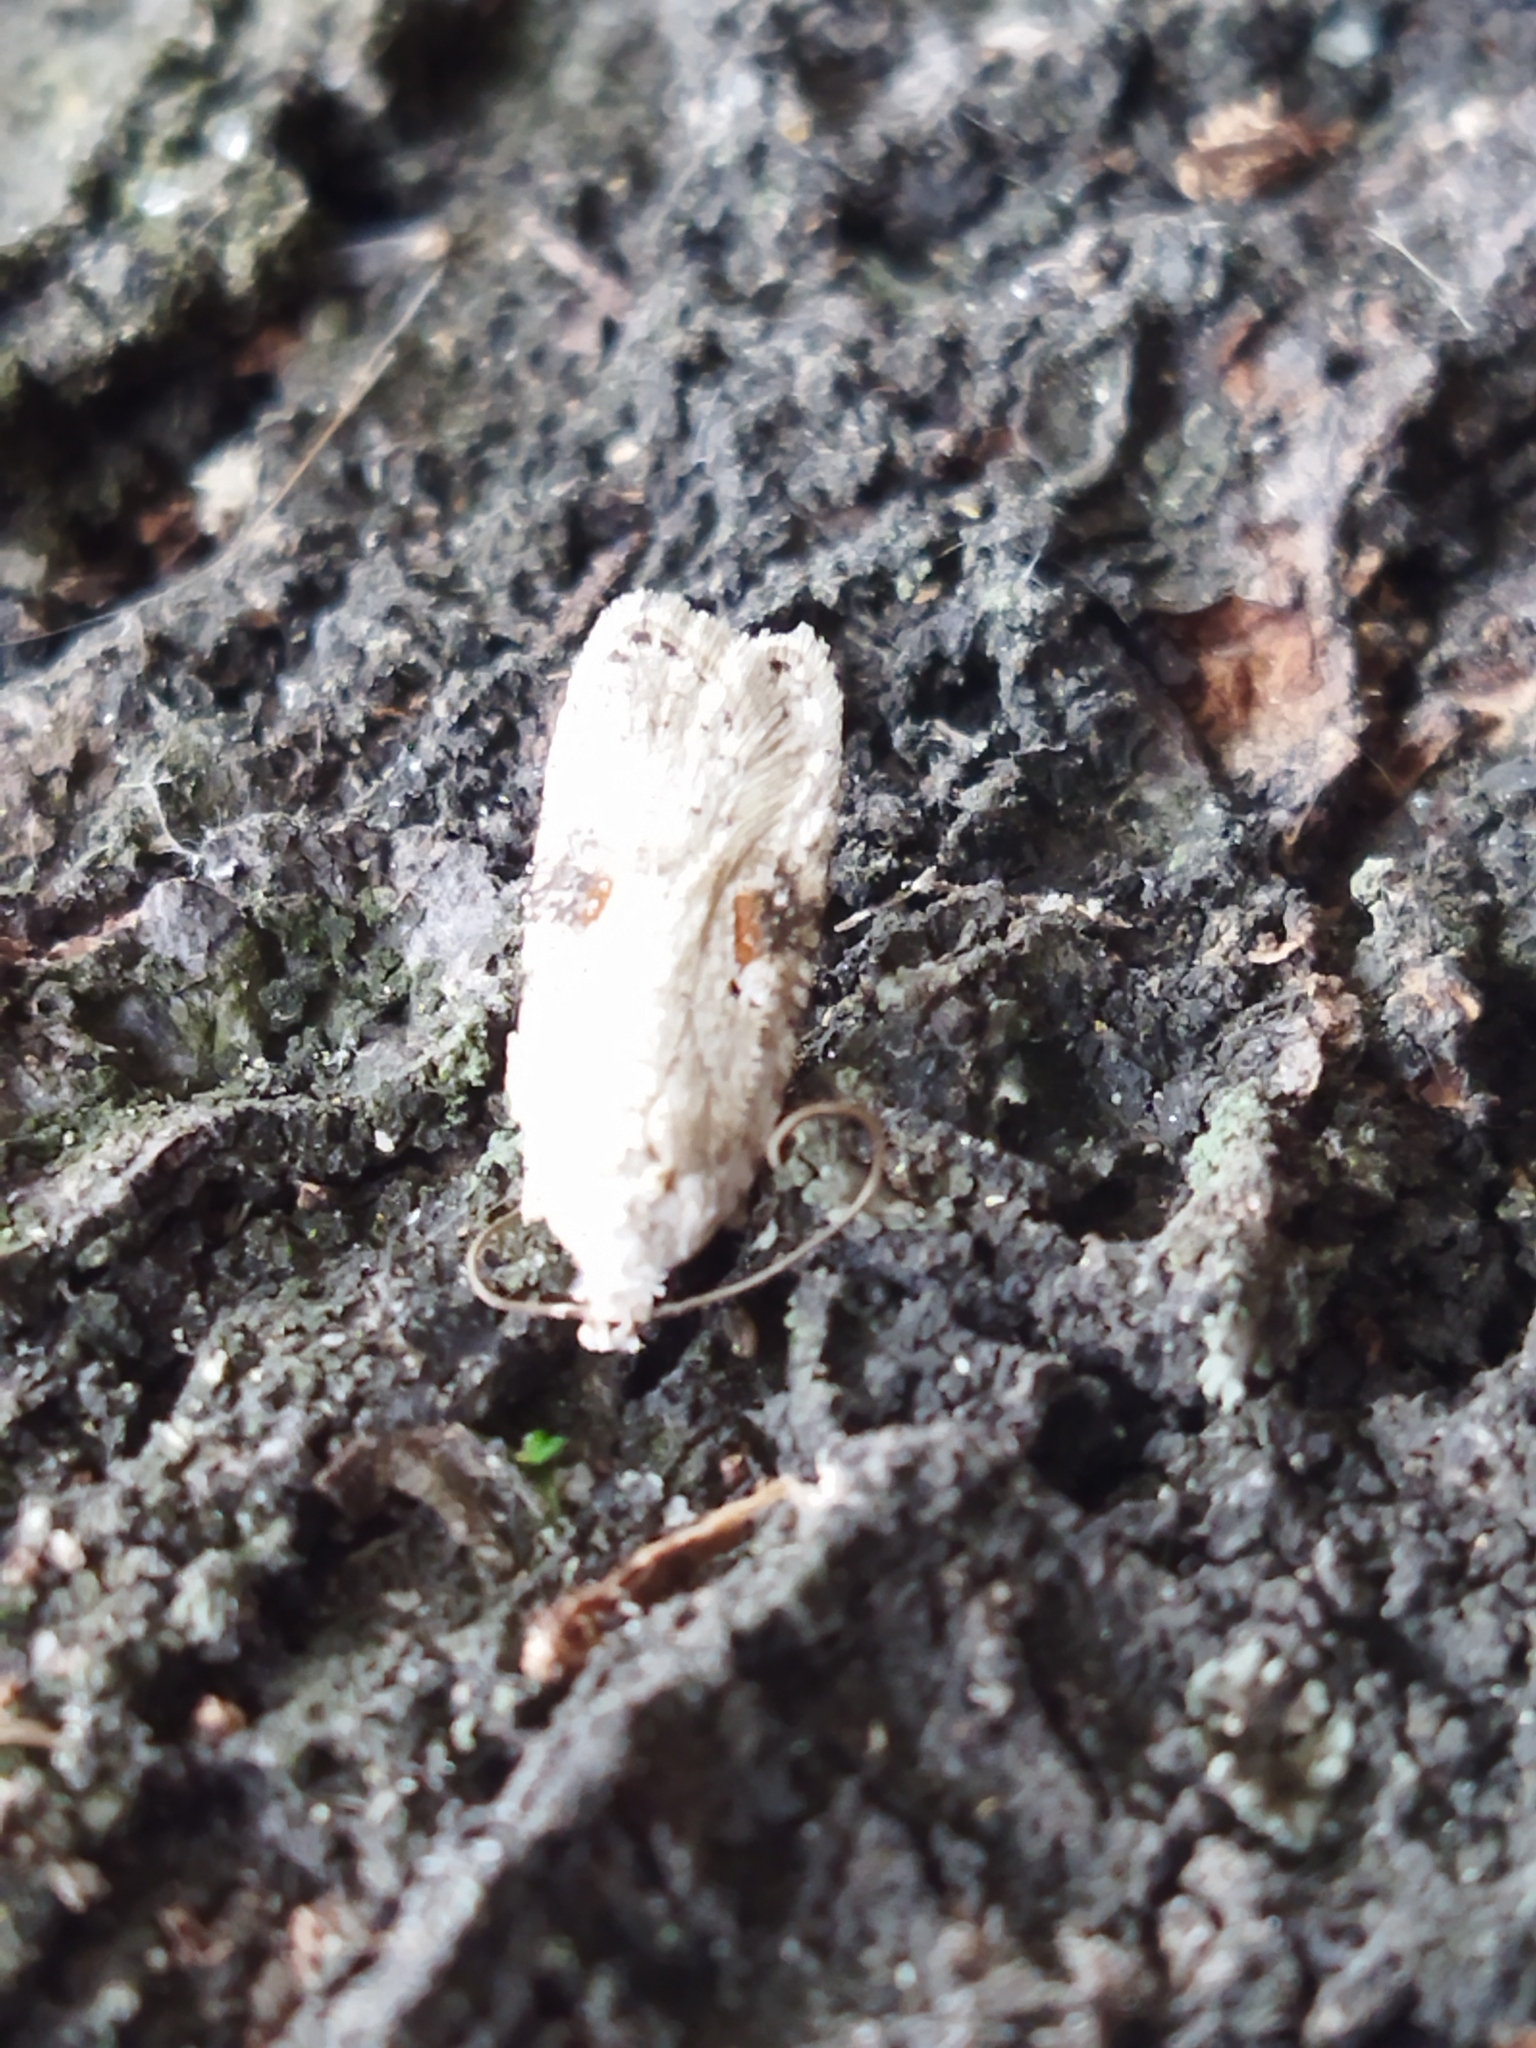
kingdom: Animalia
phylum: Arthropoda
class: Insecta
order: Lepidoptera
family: Depressariidae
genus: Agonopterix
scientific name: Agonopterix alstroemeriana
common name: Moth
